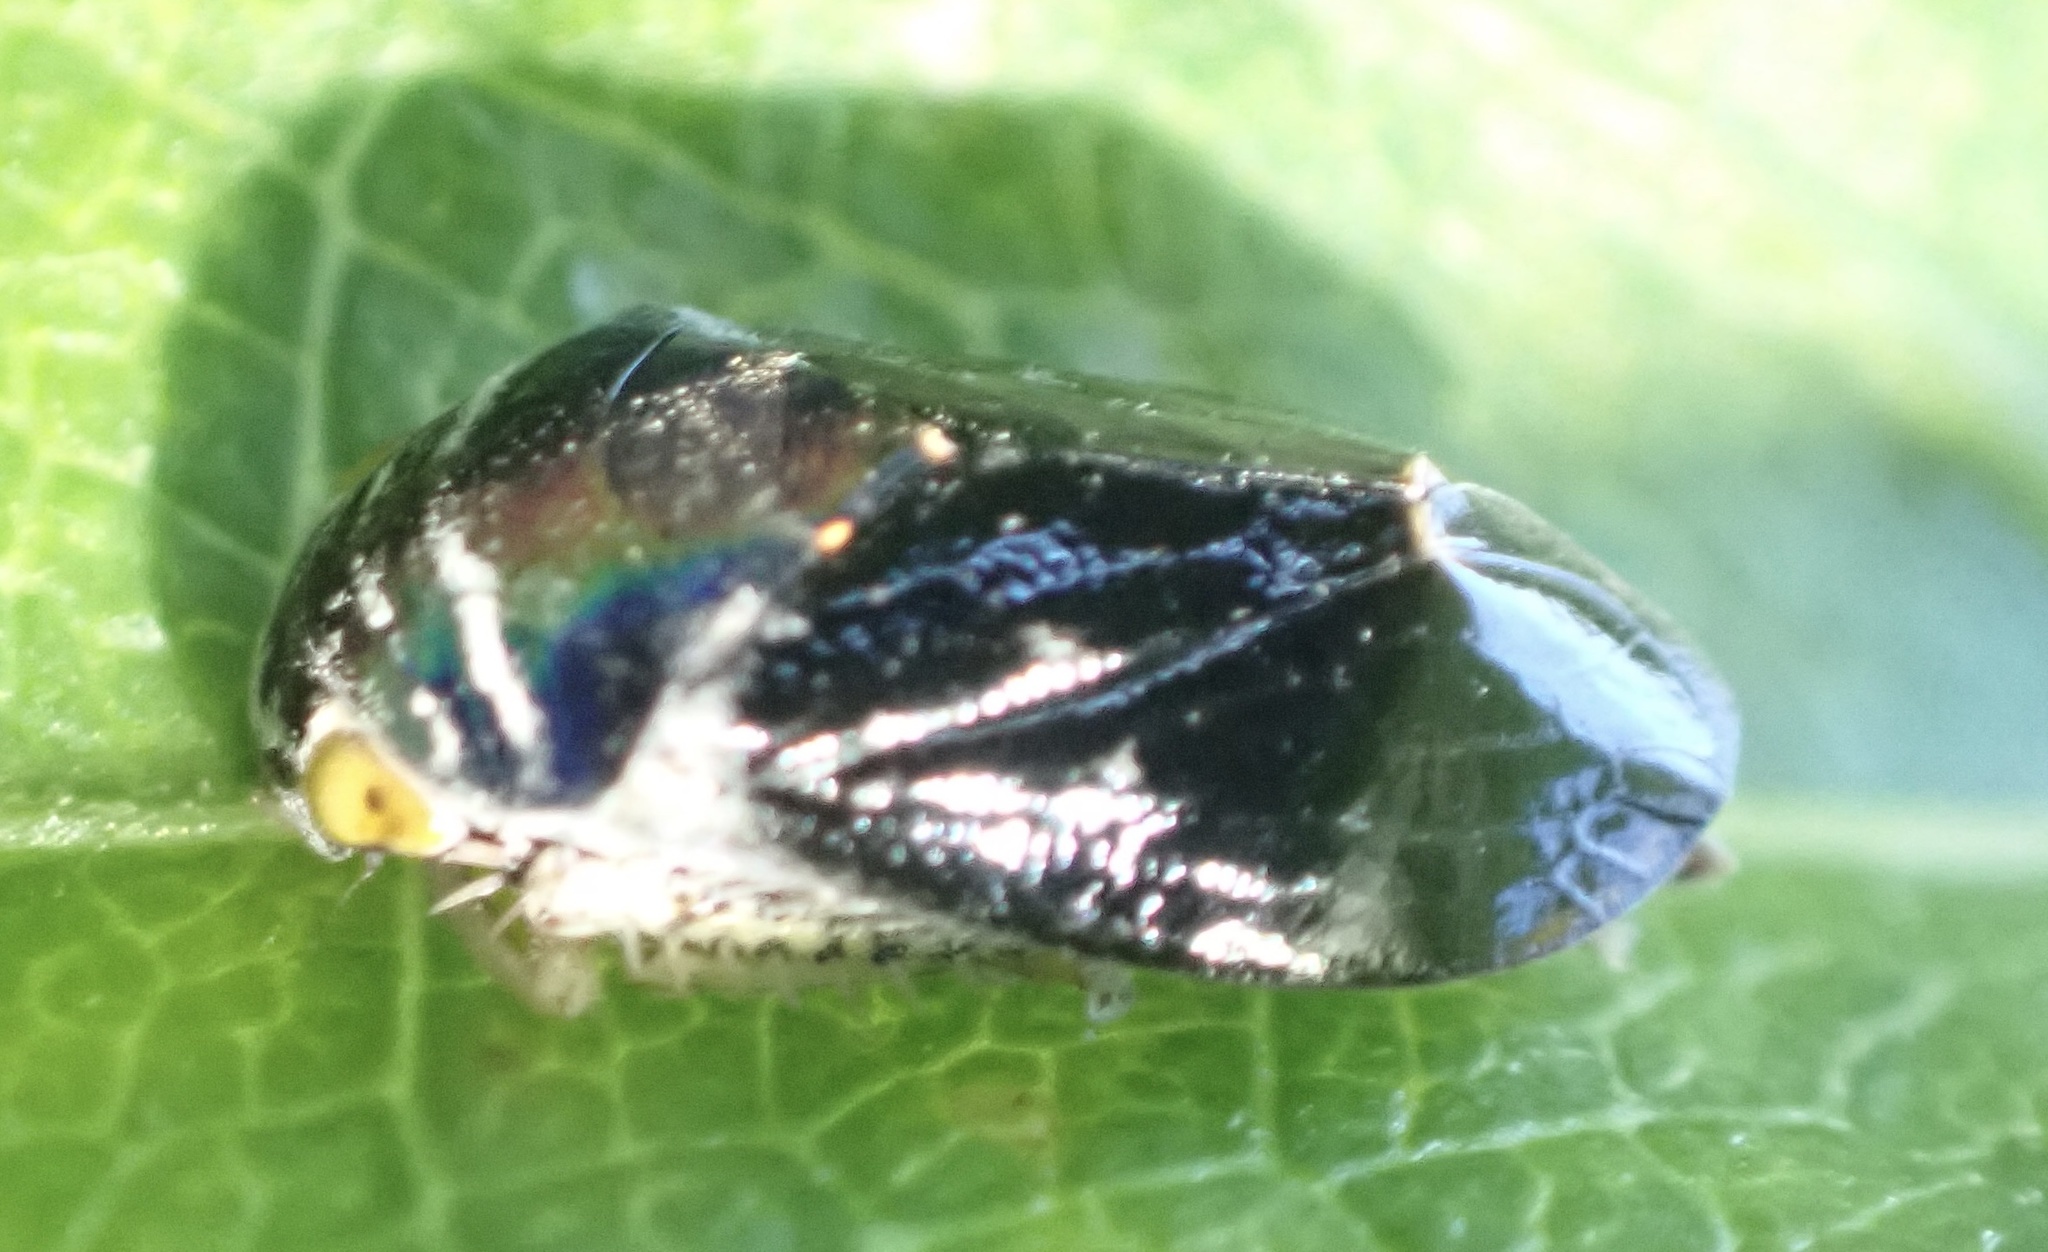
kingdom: Animalia
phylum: Arthropoda
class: Insecta
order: Hemiptera
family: Cicadellidae
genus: Penthimia
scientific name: Penthimia nitens
